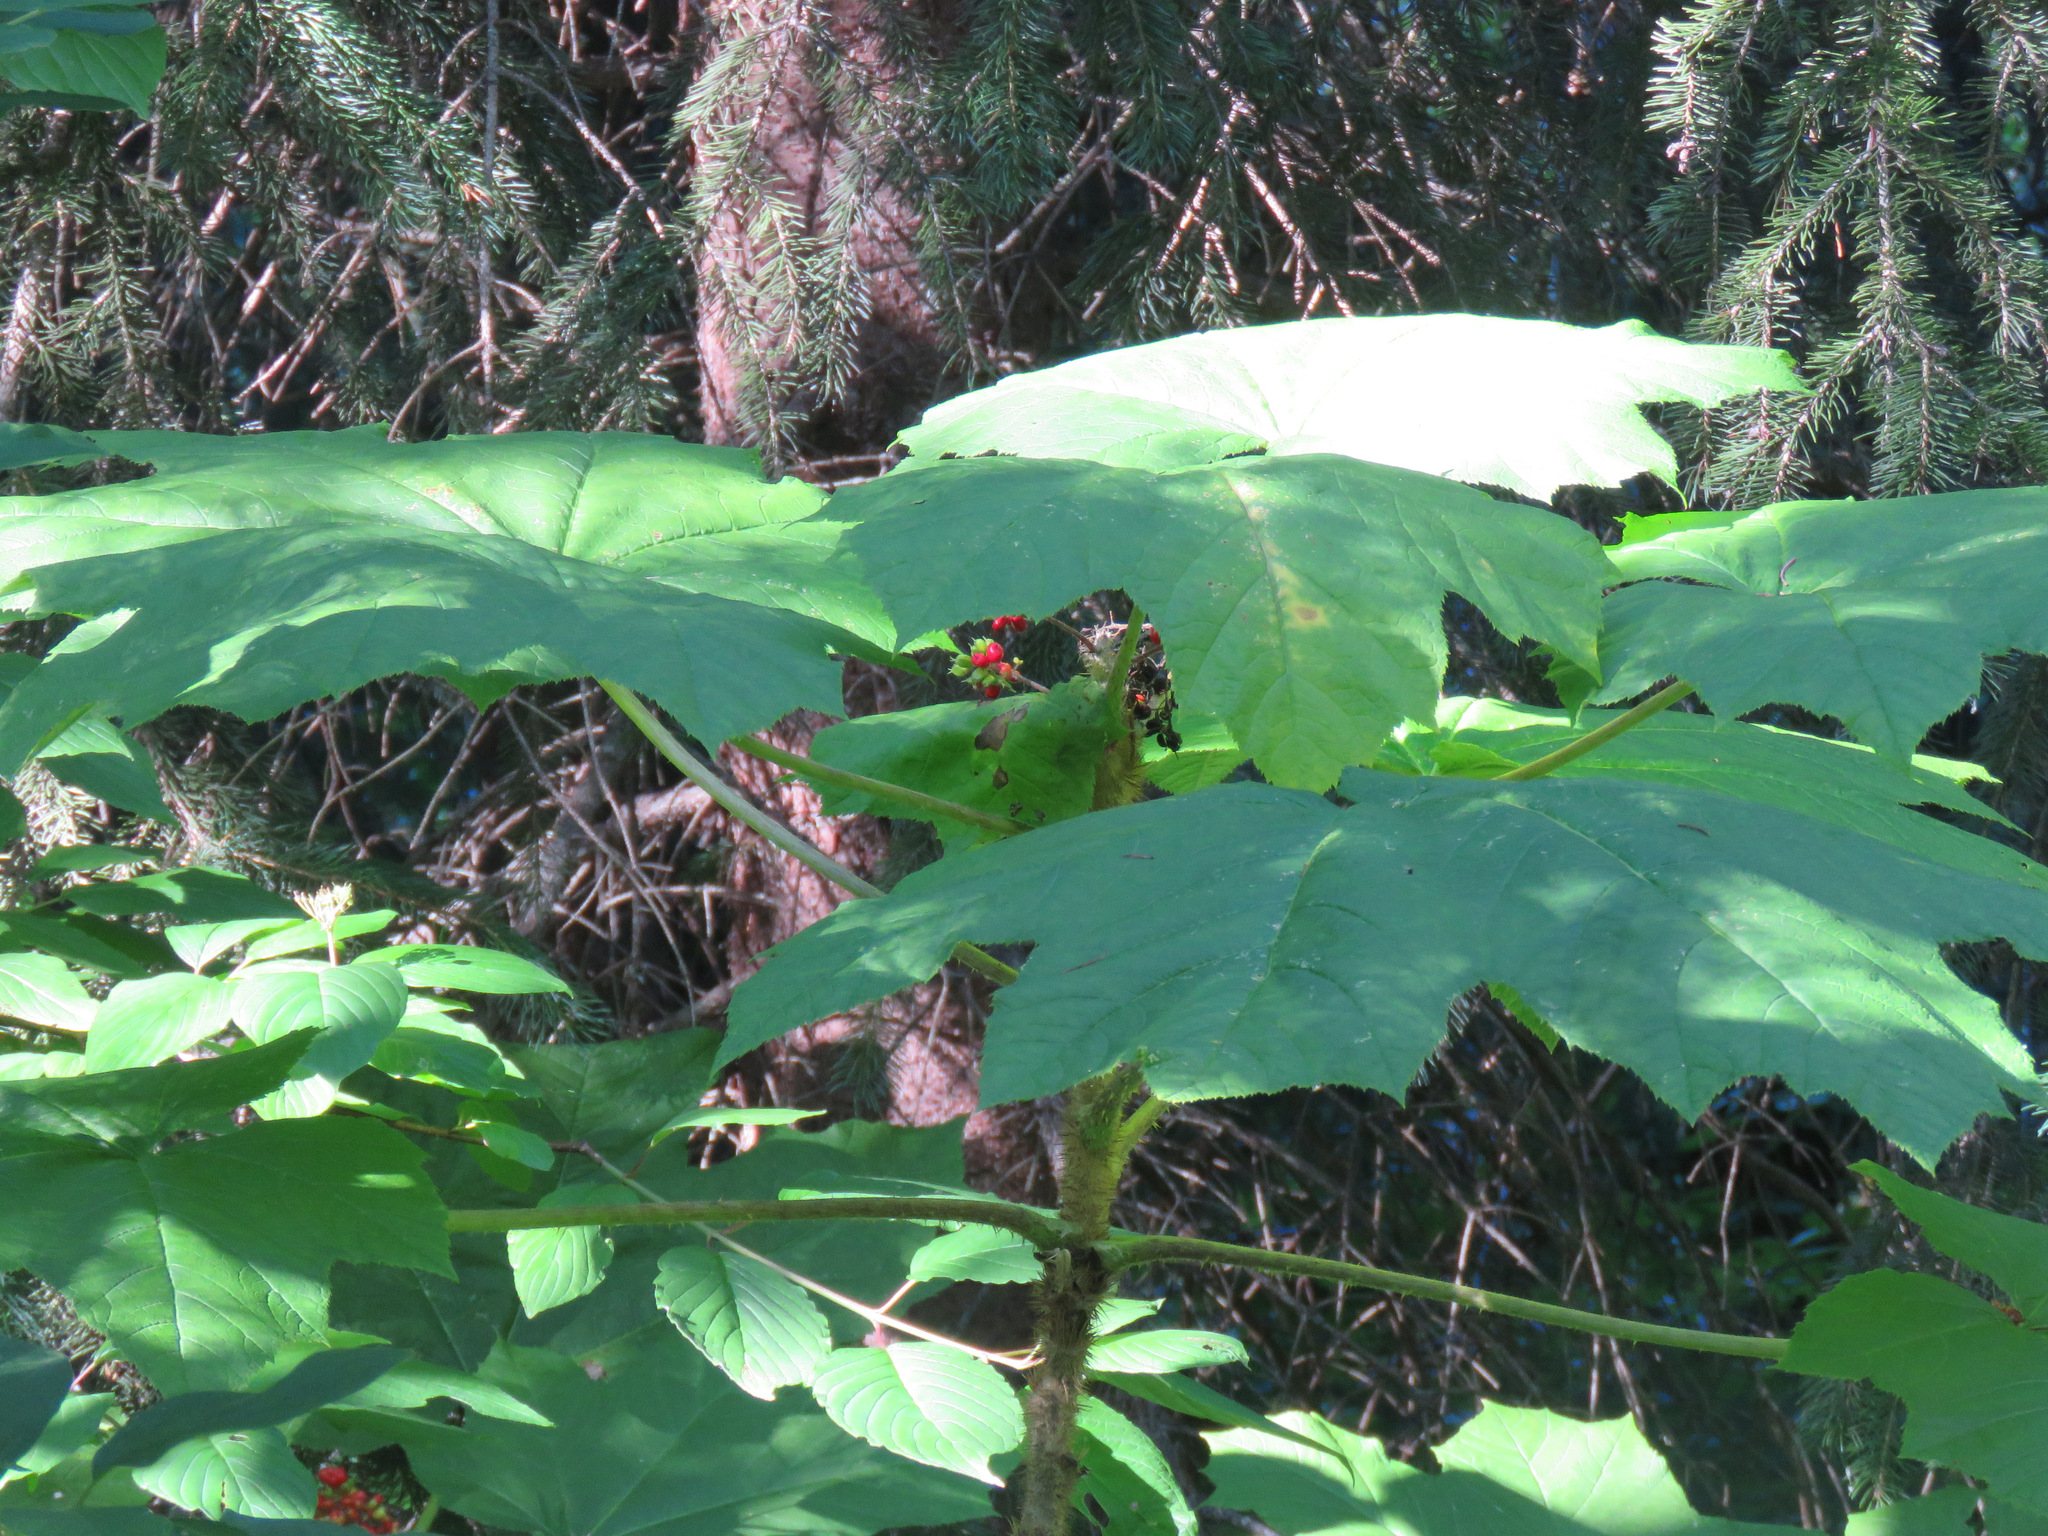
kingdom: Plantae
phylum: Tracheophyta
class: Magnoliopsida
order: Apiales
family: Araliaceae
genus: Oplopanax
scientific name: Oplopanax horridus
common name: Devil's walking-stick
